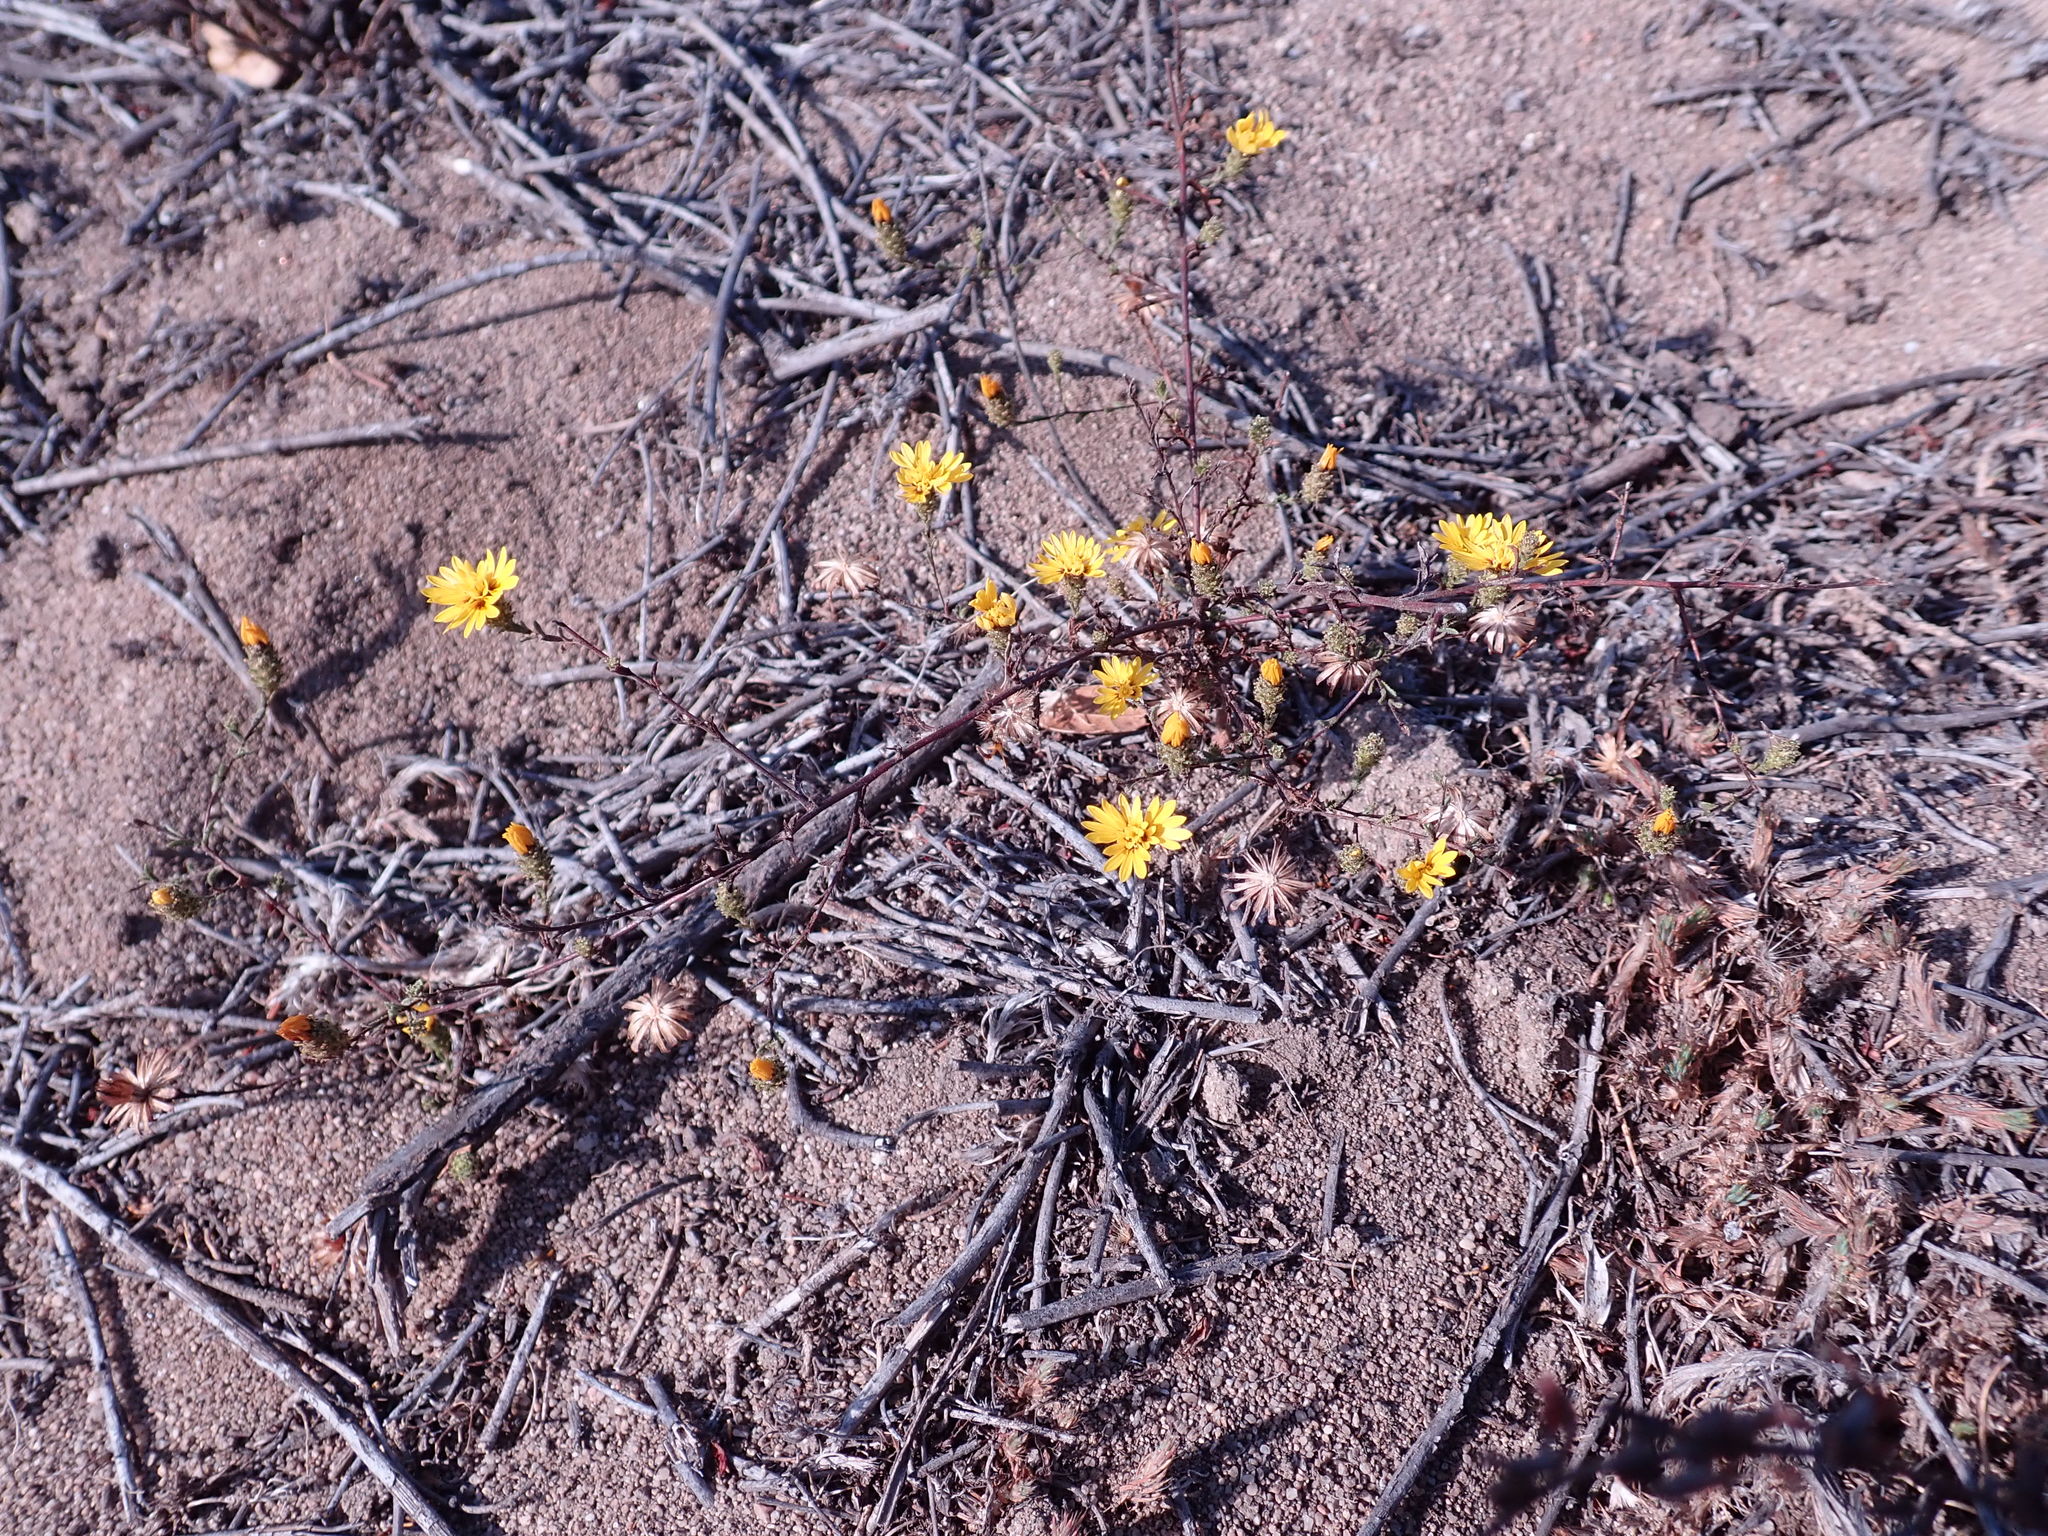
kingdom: Plantae
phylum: Tracheophyta
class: Magnoliopsida
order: Asterales
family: Asteraceae
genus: Lessingia
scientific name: Lessingia pectinata
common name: Valley lessingia
